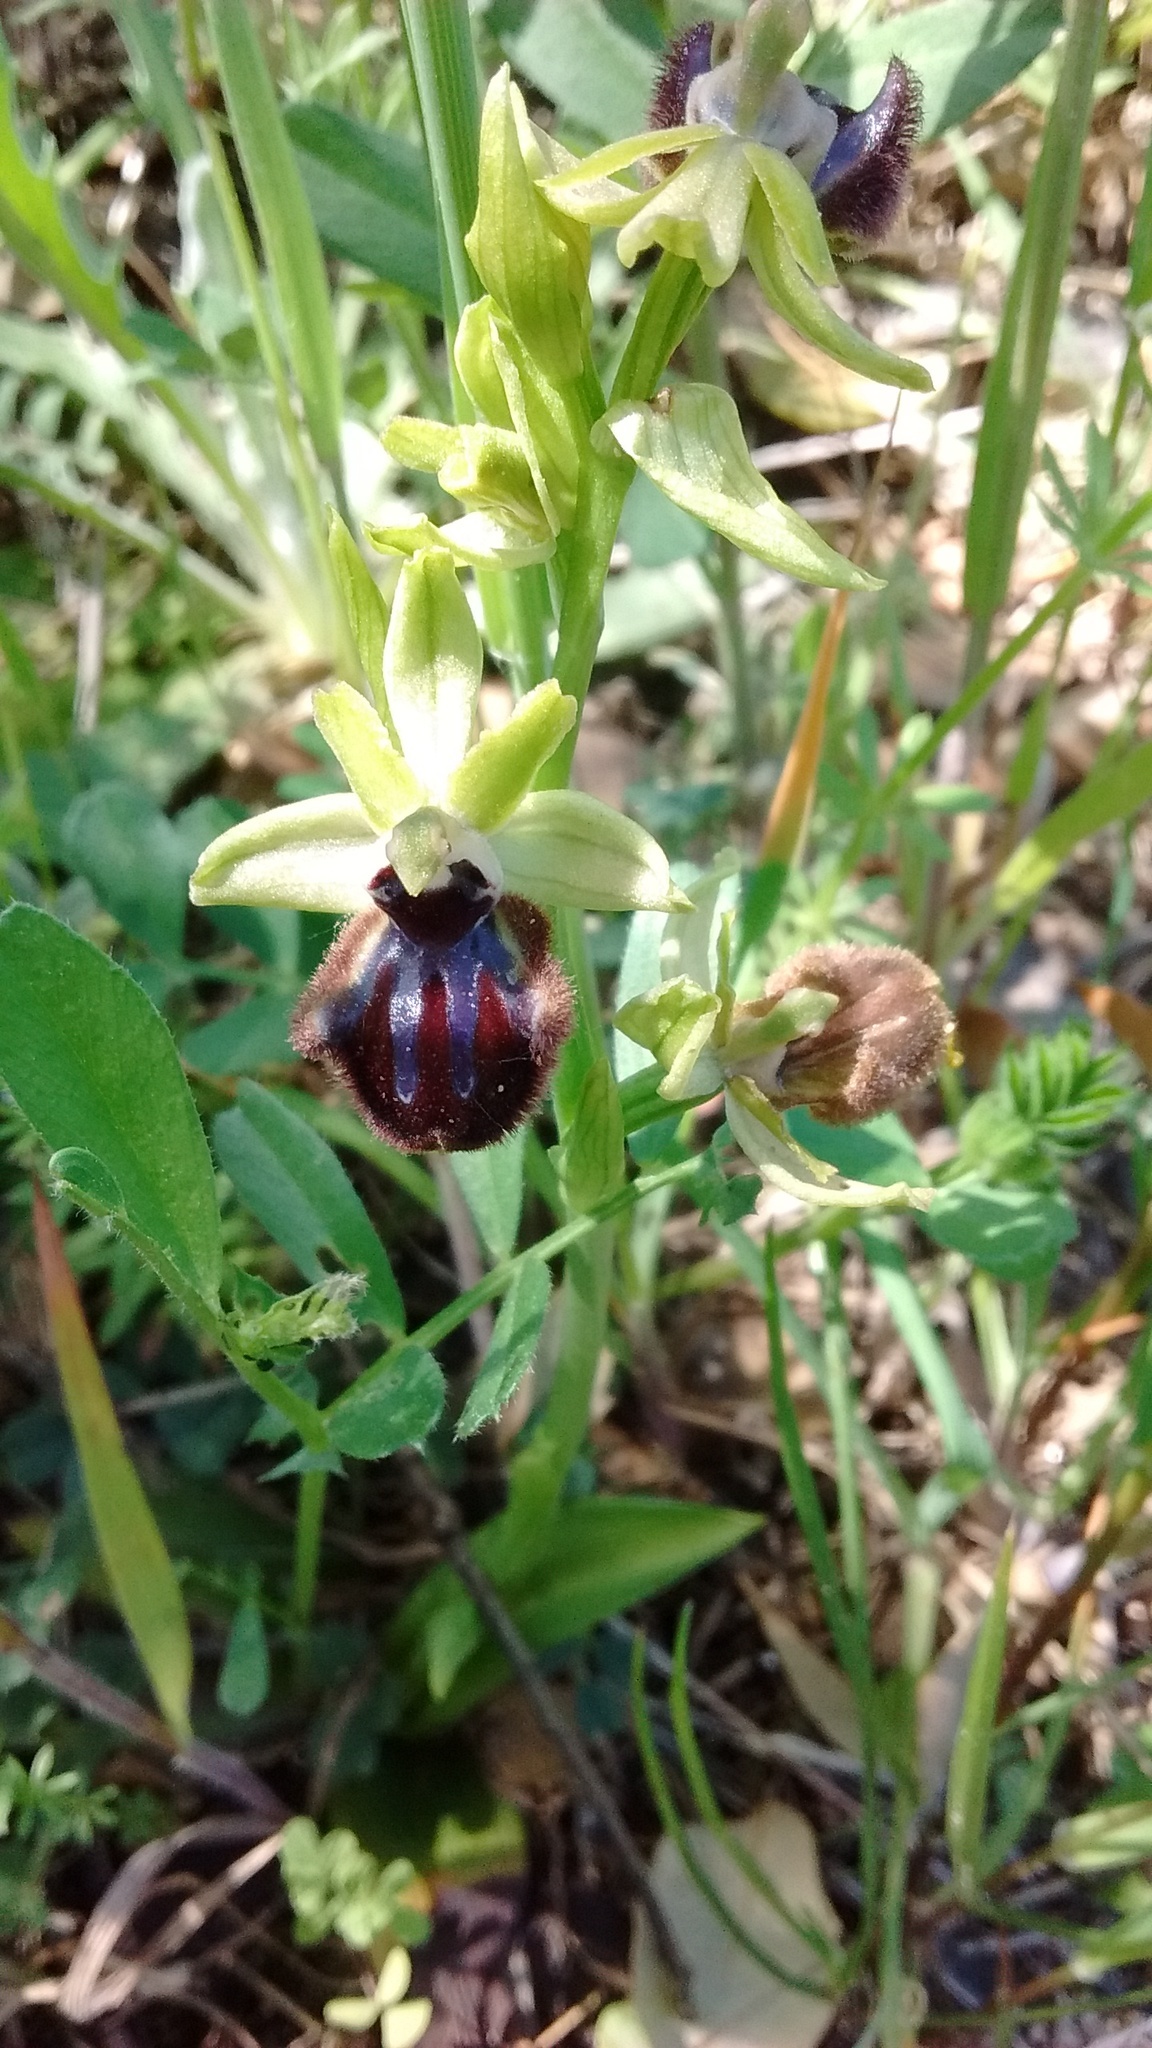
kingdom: Plantae
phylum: Tracheophyta
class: Liliopsida
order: Asparagales
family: Orchidaceae
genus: Ophrys
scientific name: Ophrys sphegodes
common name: Early spider-orchid
